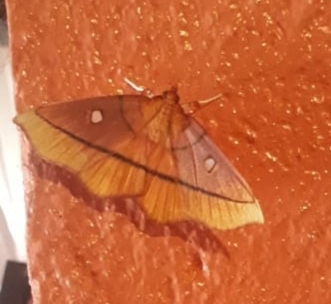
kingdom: Animalia
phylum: Arthropoda
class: Insecta
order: Lepidoptera
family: Crambidae
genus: Midila
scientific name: Midila daphne
